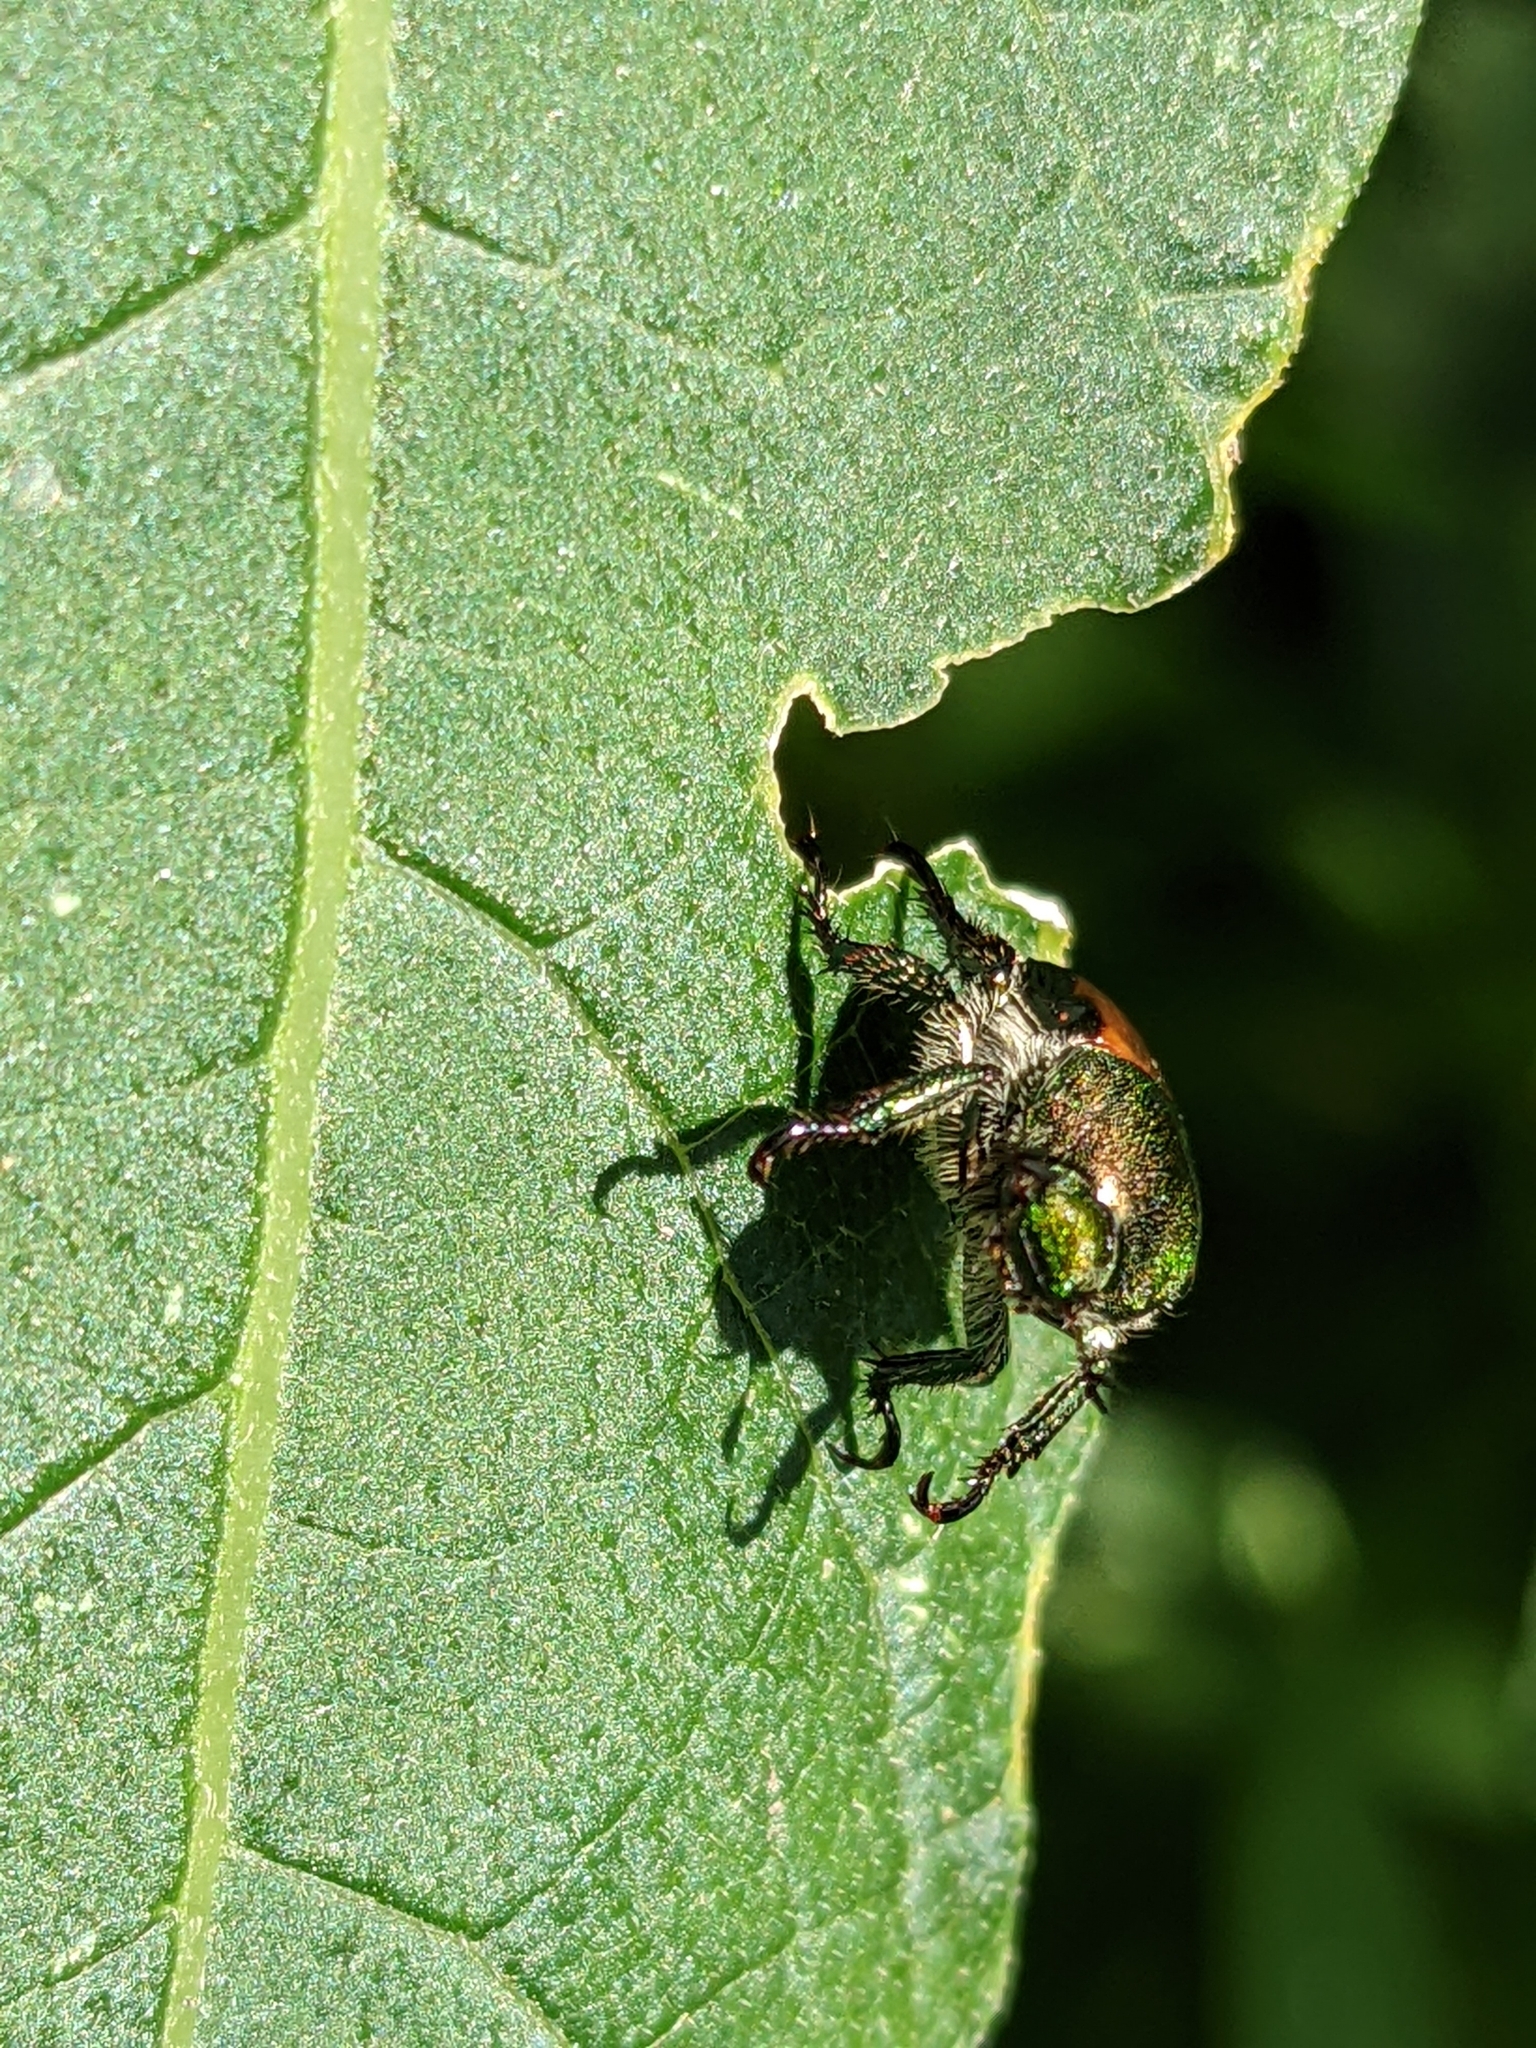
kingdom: Animalia
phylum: Arthropoda
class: Insecta
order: Coleoptera
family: Scarabaeidae
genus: Popillia
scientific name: Popillia japonica
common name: Japanese beetle
